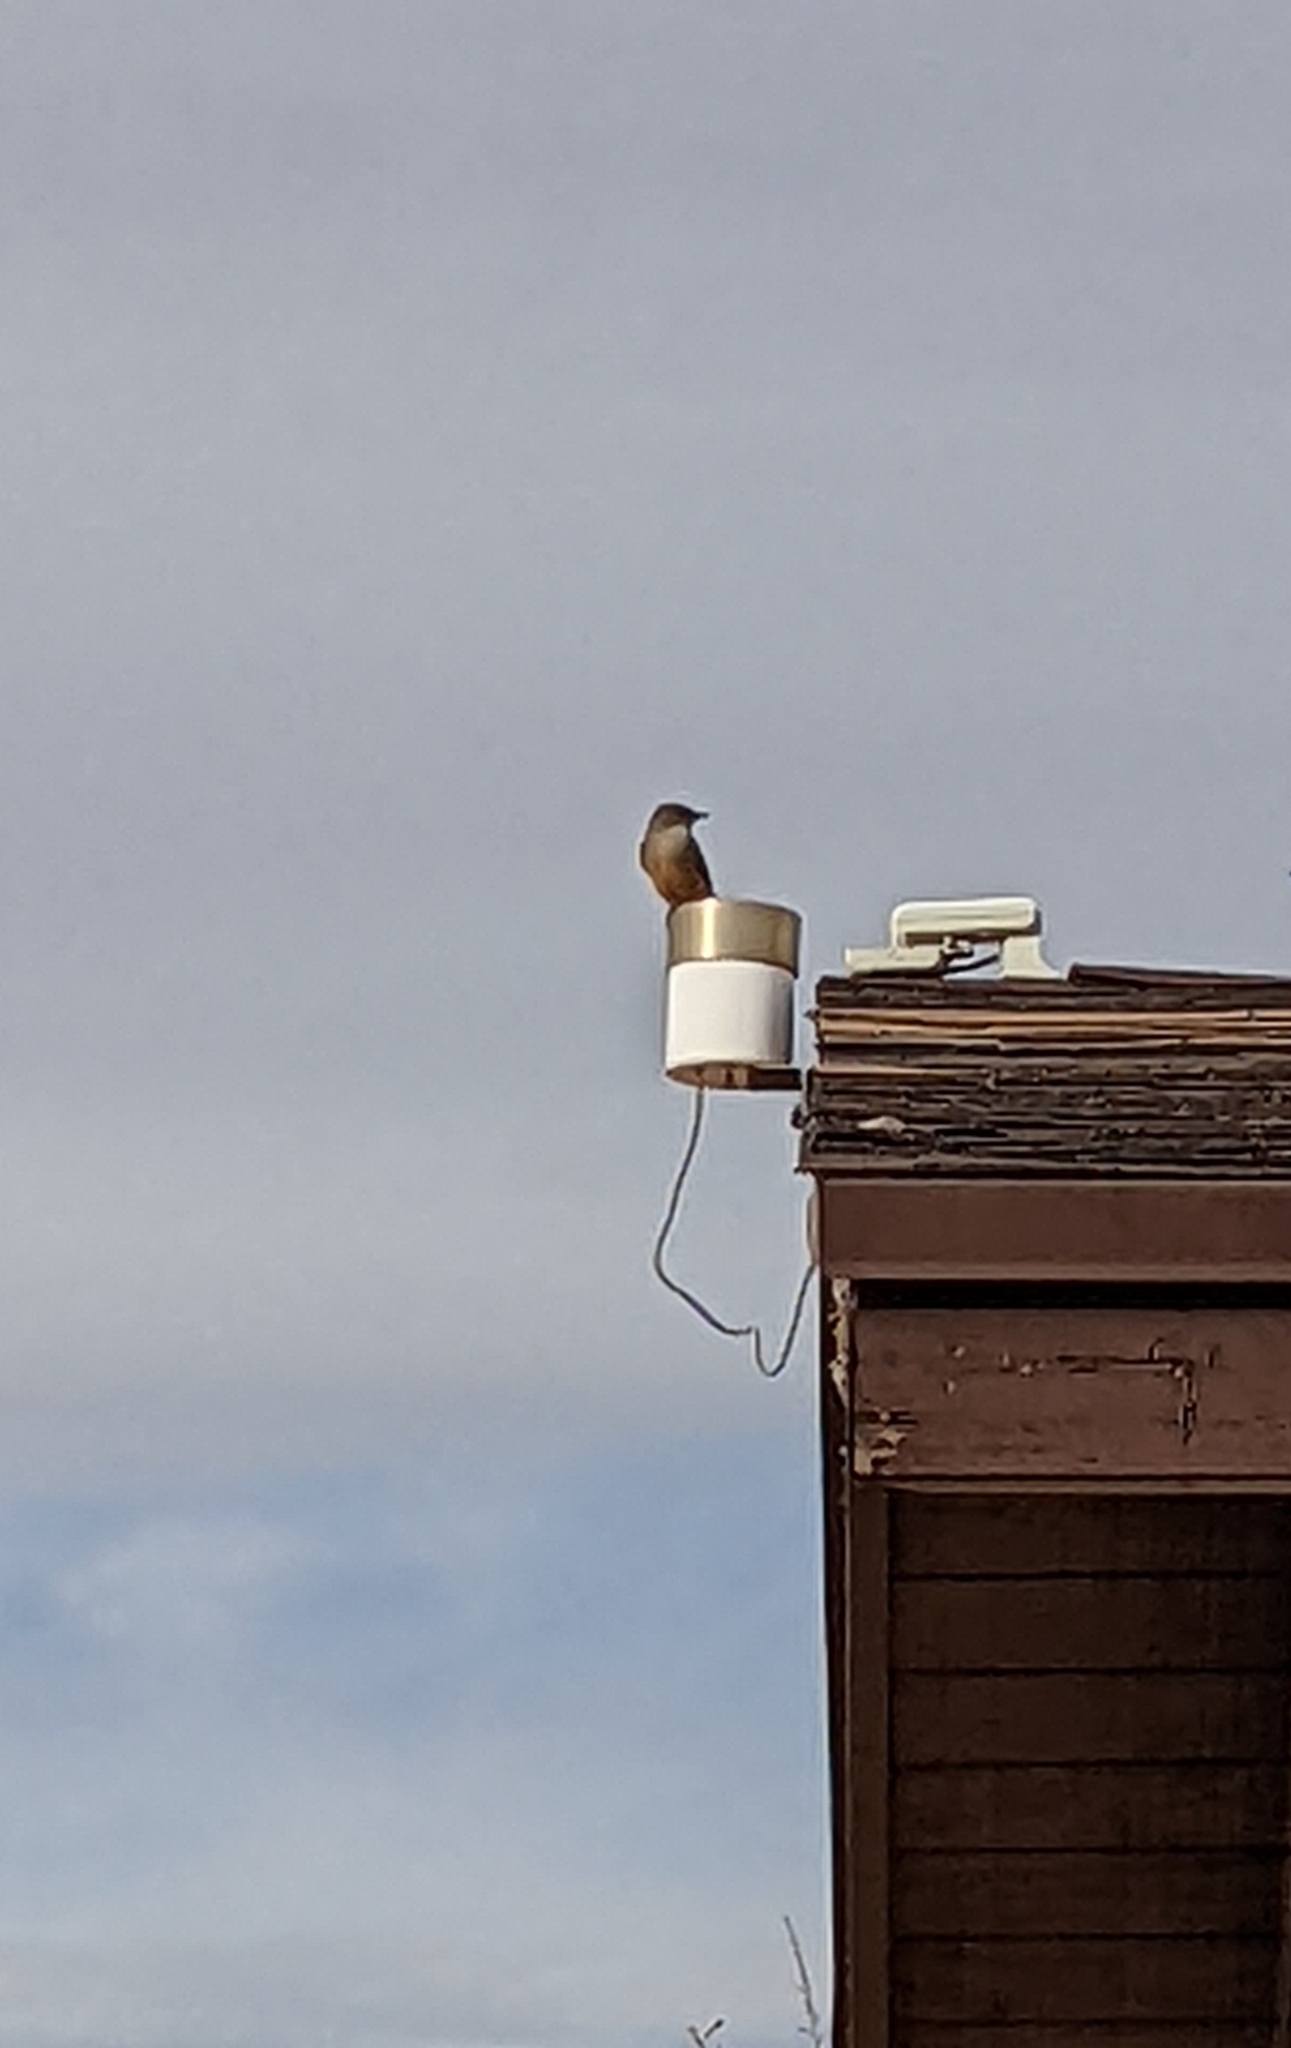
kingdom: Animalia
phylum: Chordata
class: Aves
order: Passeriformes
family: Tyrannidae
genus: Sayornis
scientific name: Sayornis saya
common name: Say's phoebe
